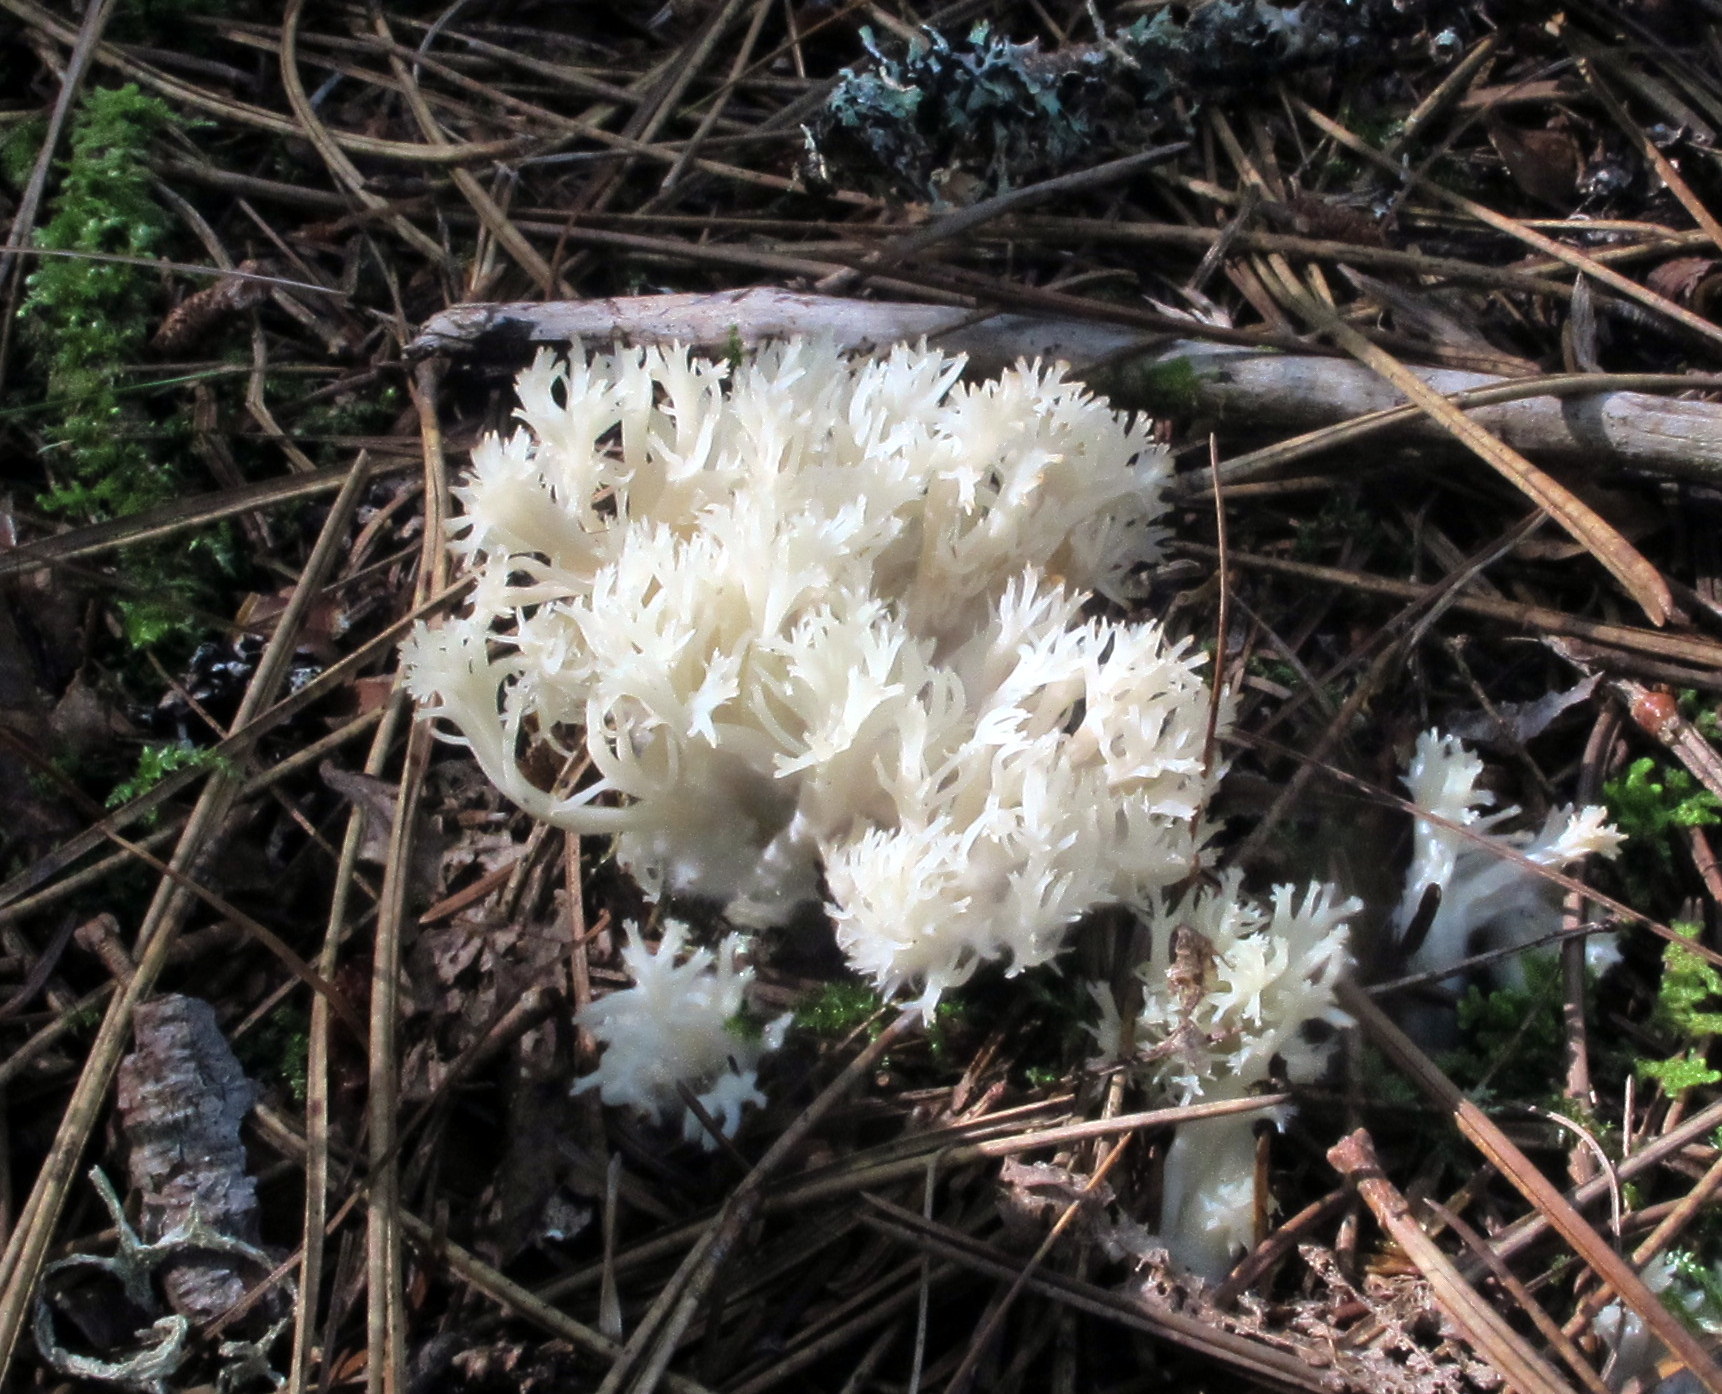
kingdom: Fungi
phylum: Basidiomycota
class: Agaricomycetes
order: Cantharellales
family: Hydnaceae
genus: Clavulina
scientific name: Clavulina coralloides
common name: Crested coral
